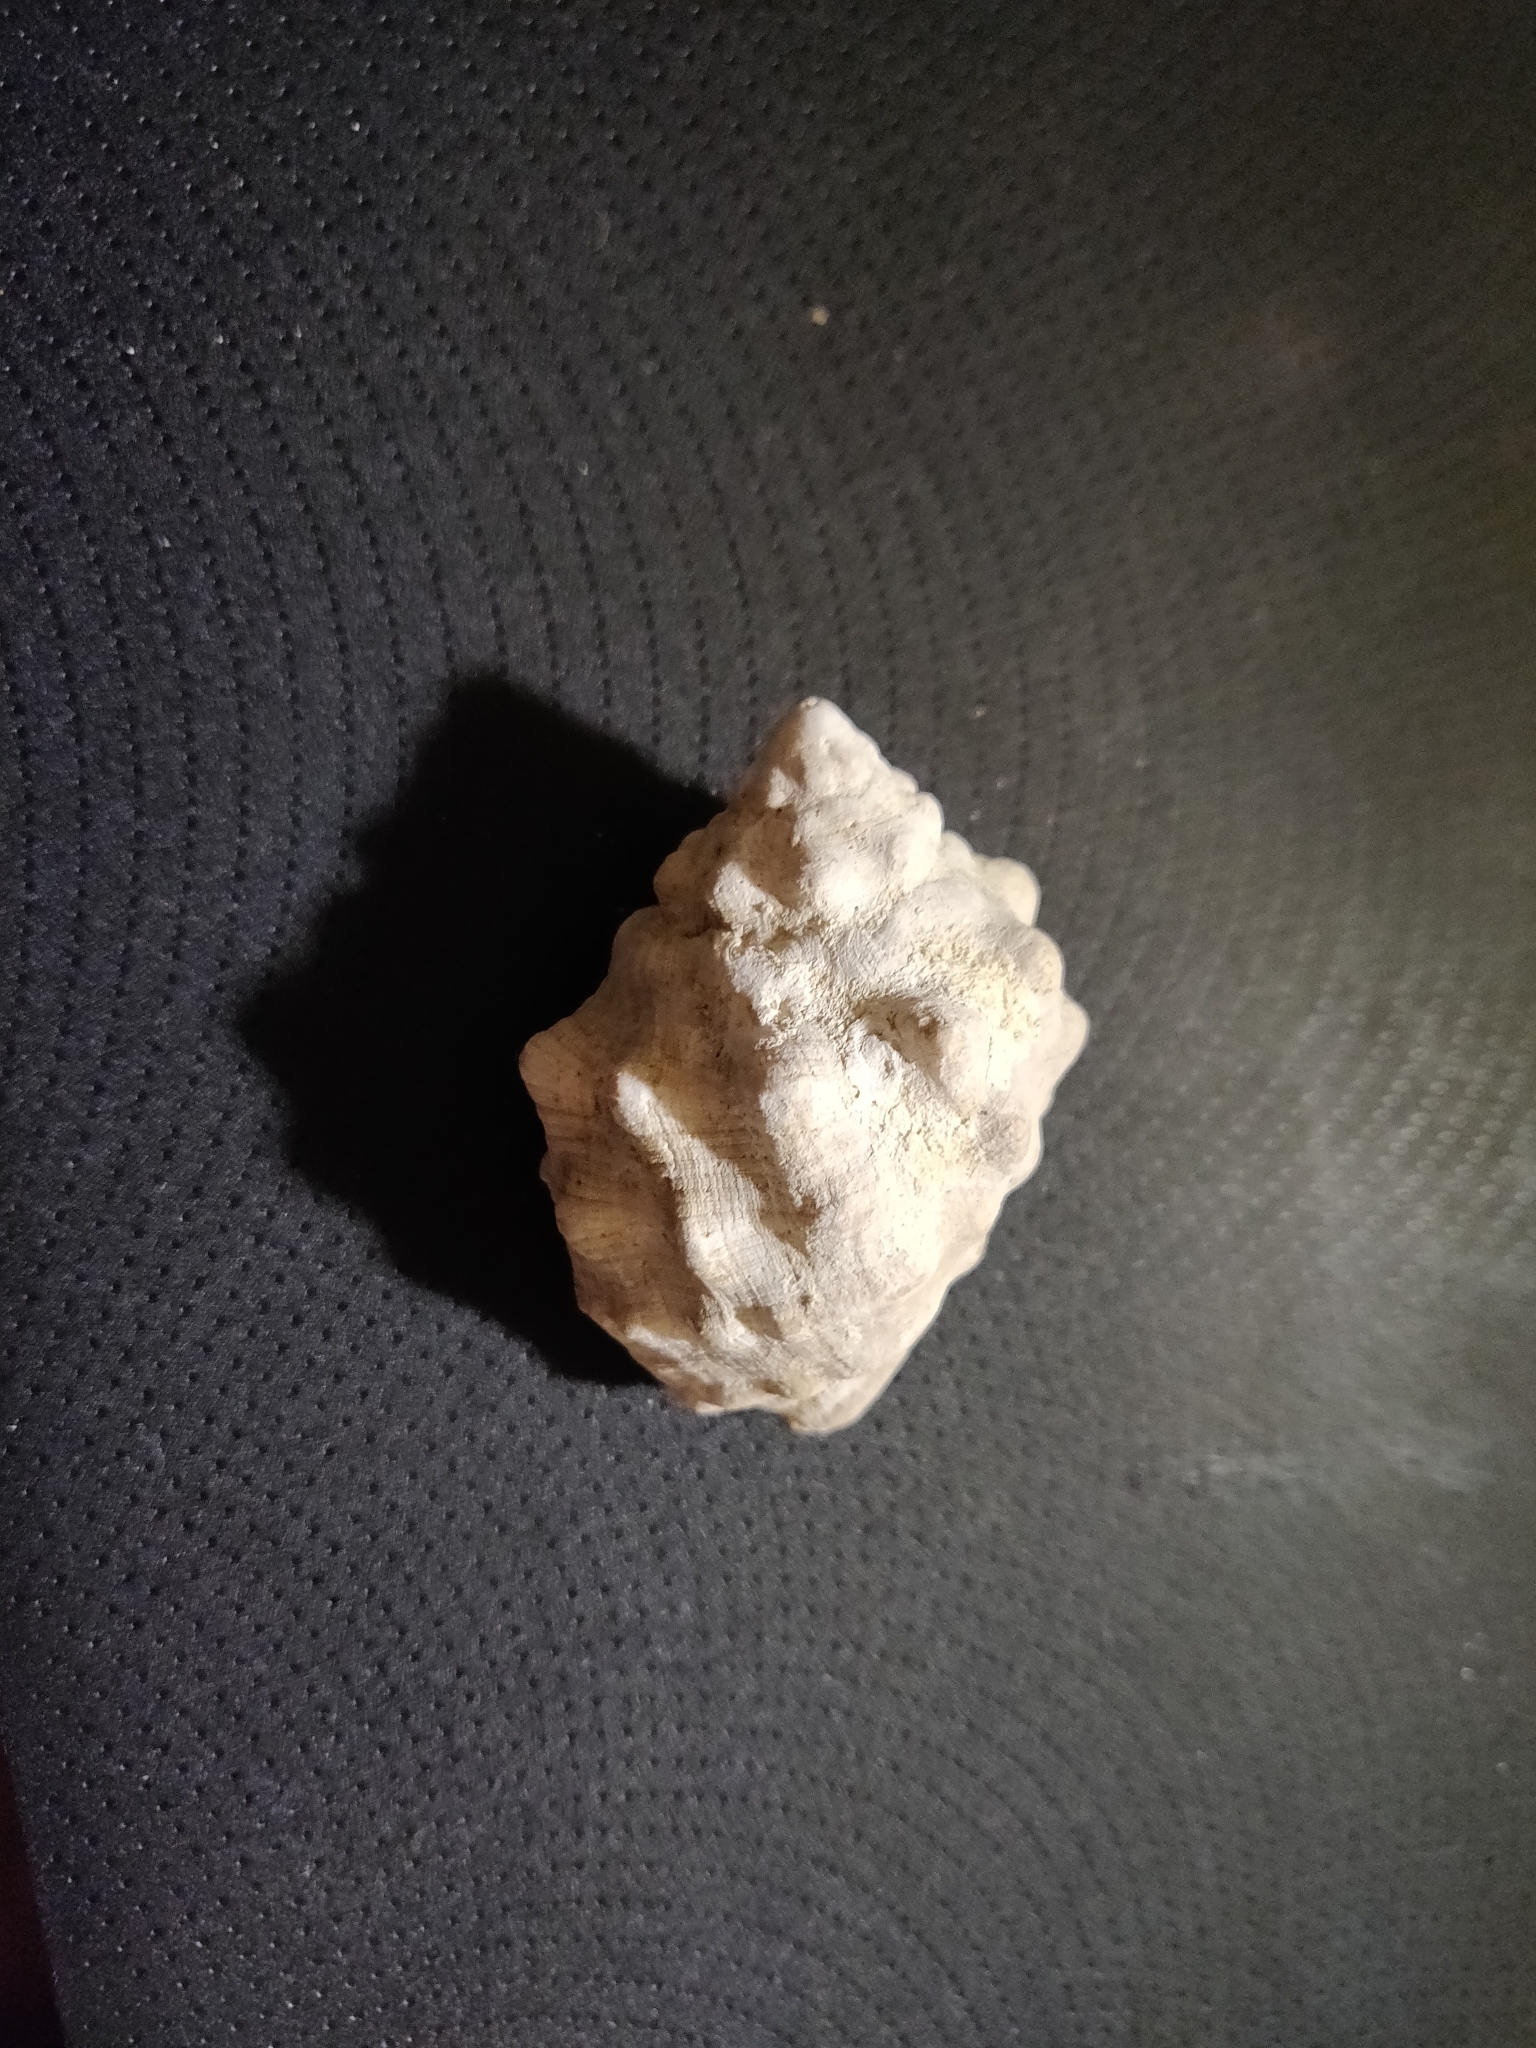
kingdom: Animalia
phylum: Mollusca
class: Gastropoda
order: Neogastropoda
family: Muricidae
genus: Stramonita
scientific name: Stramonita haemastoma
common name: Florida dog winkle
